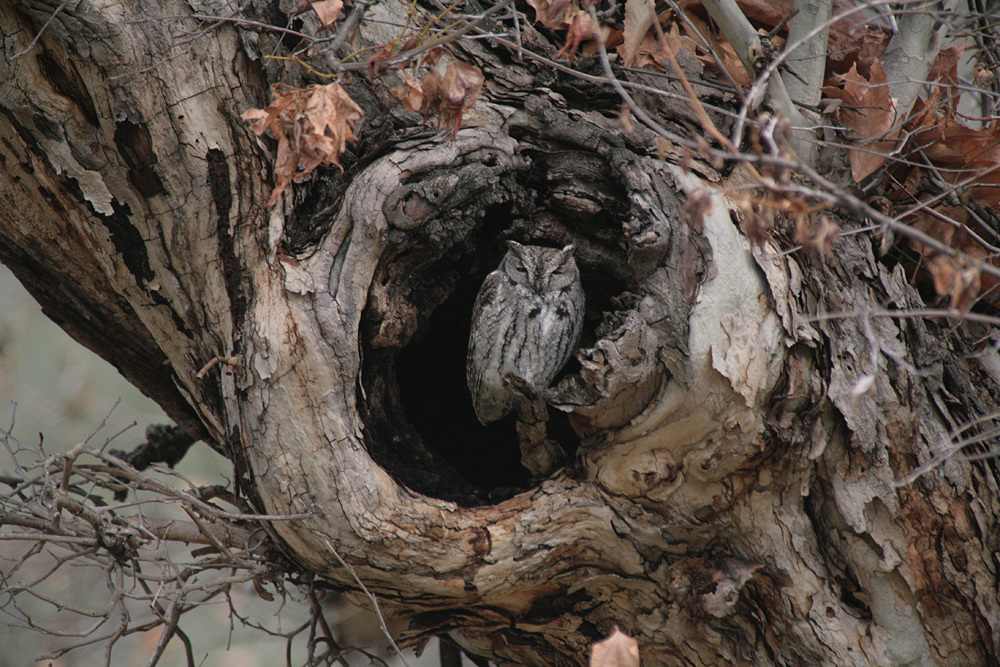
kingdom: Animalia
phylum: Chordata
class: Aves
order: Strigiformes
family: Strigidae
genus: Megascops
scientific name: Megascops kennicottii
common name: Western screech-owl
